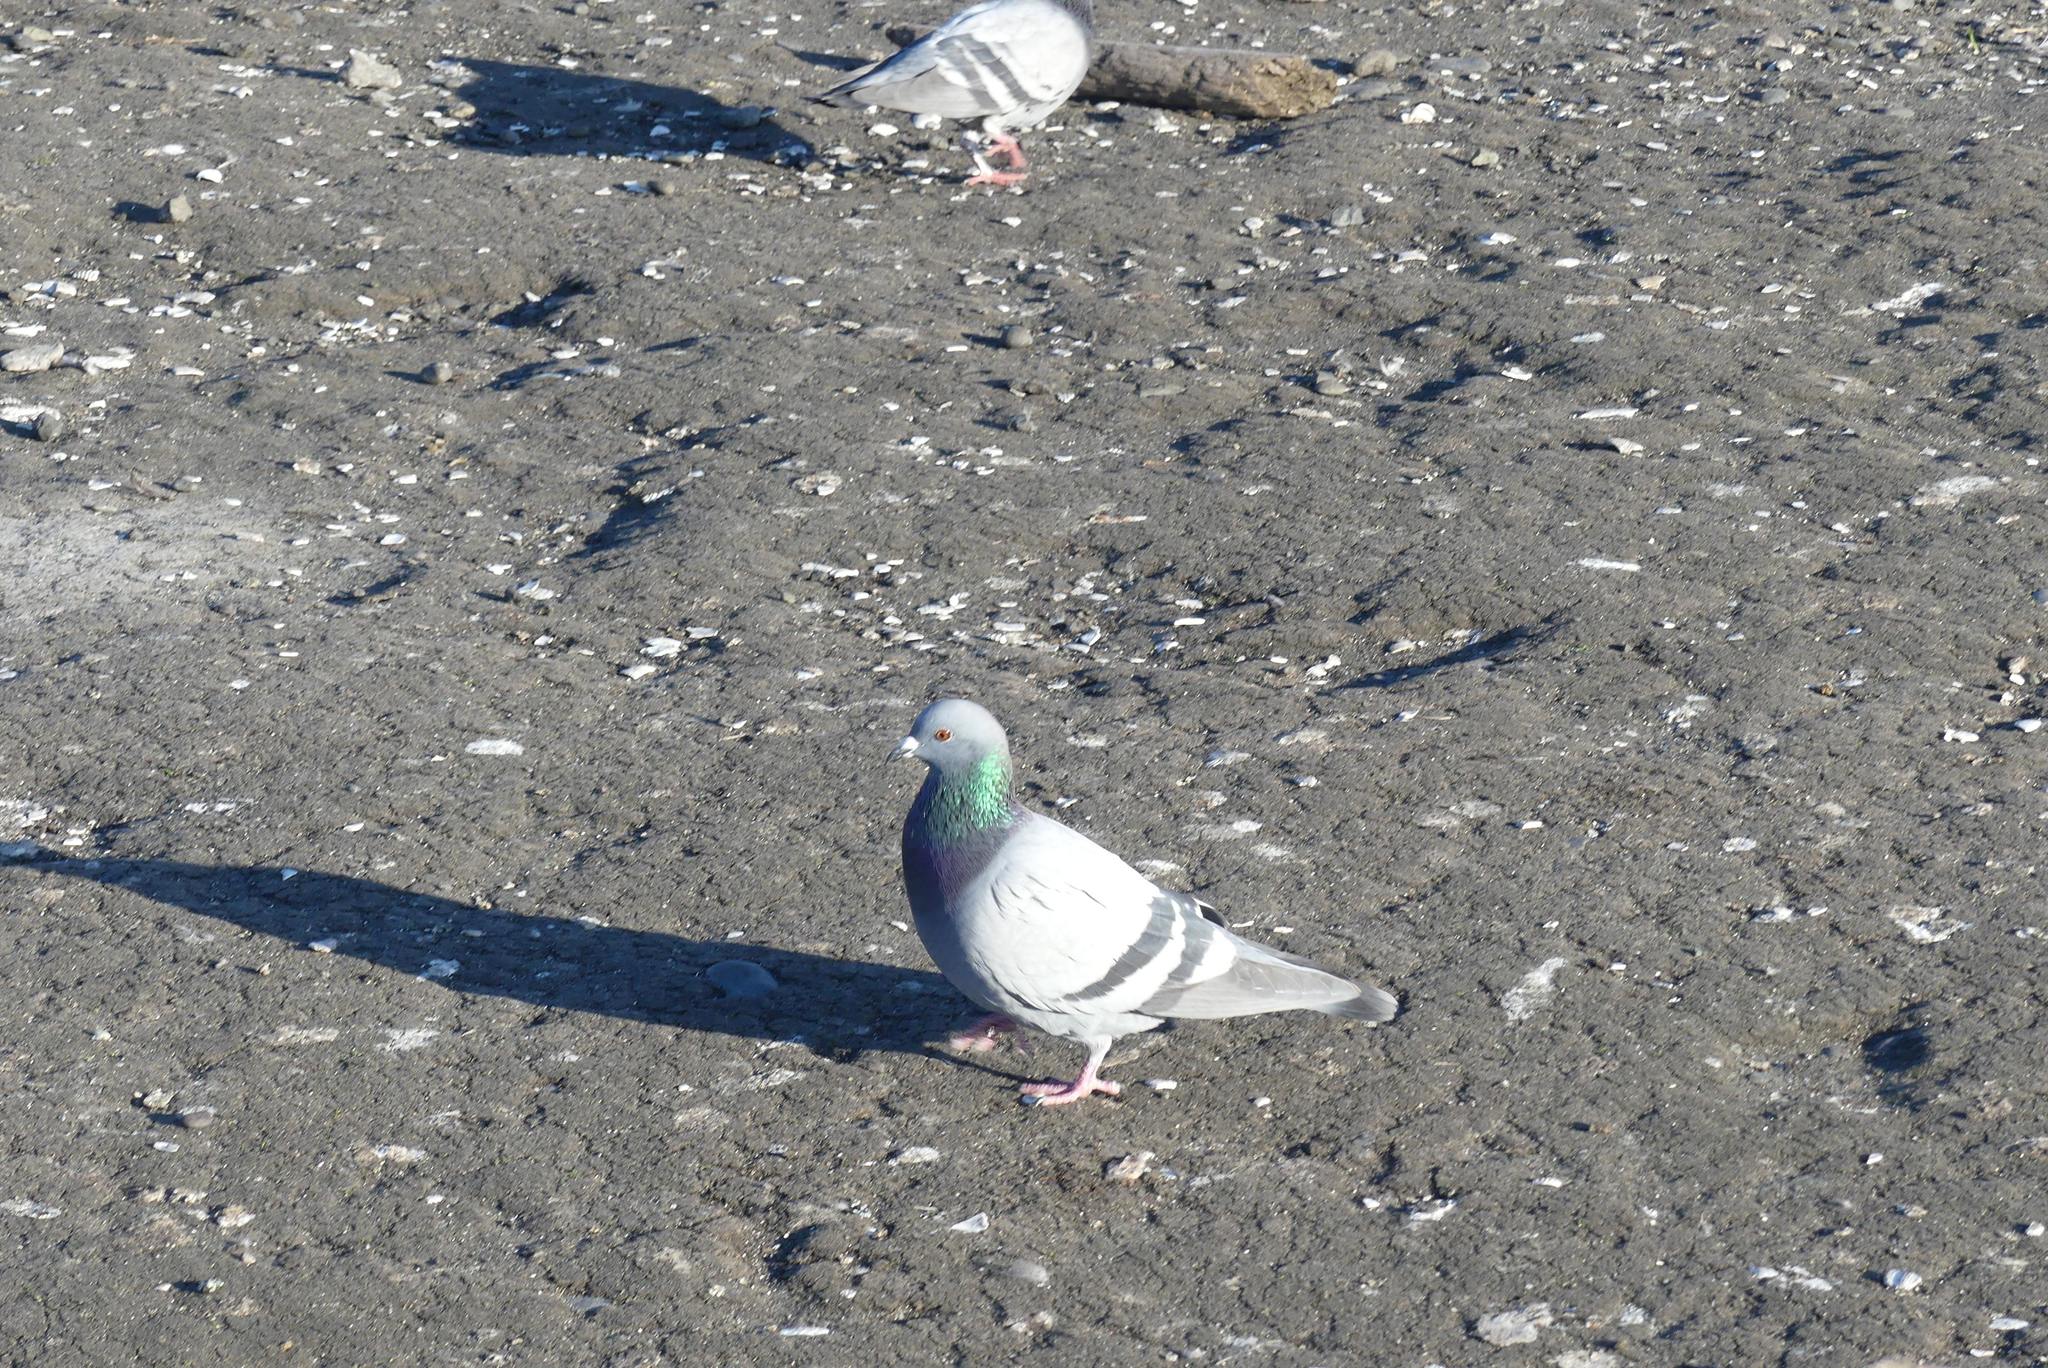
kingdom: Animalia
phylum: Chordata
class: Aves
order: Columbiformes
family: Columbidae
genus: Columba
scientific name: Columba livia
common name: Rock pigeon
